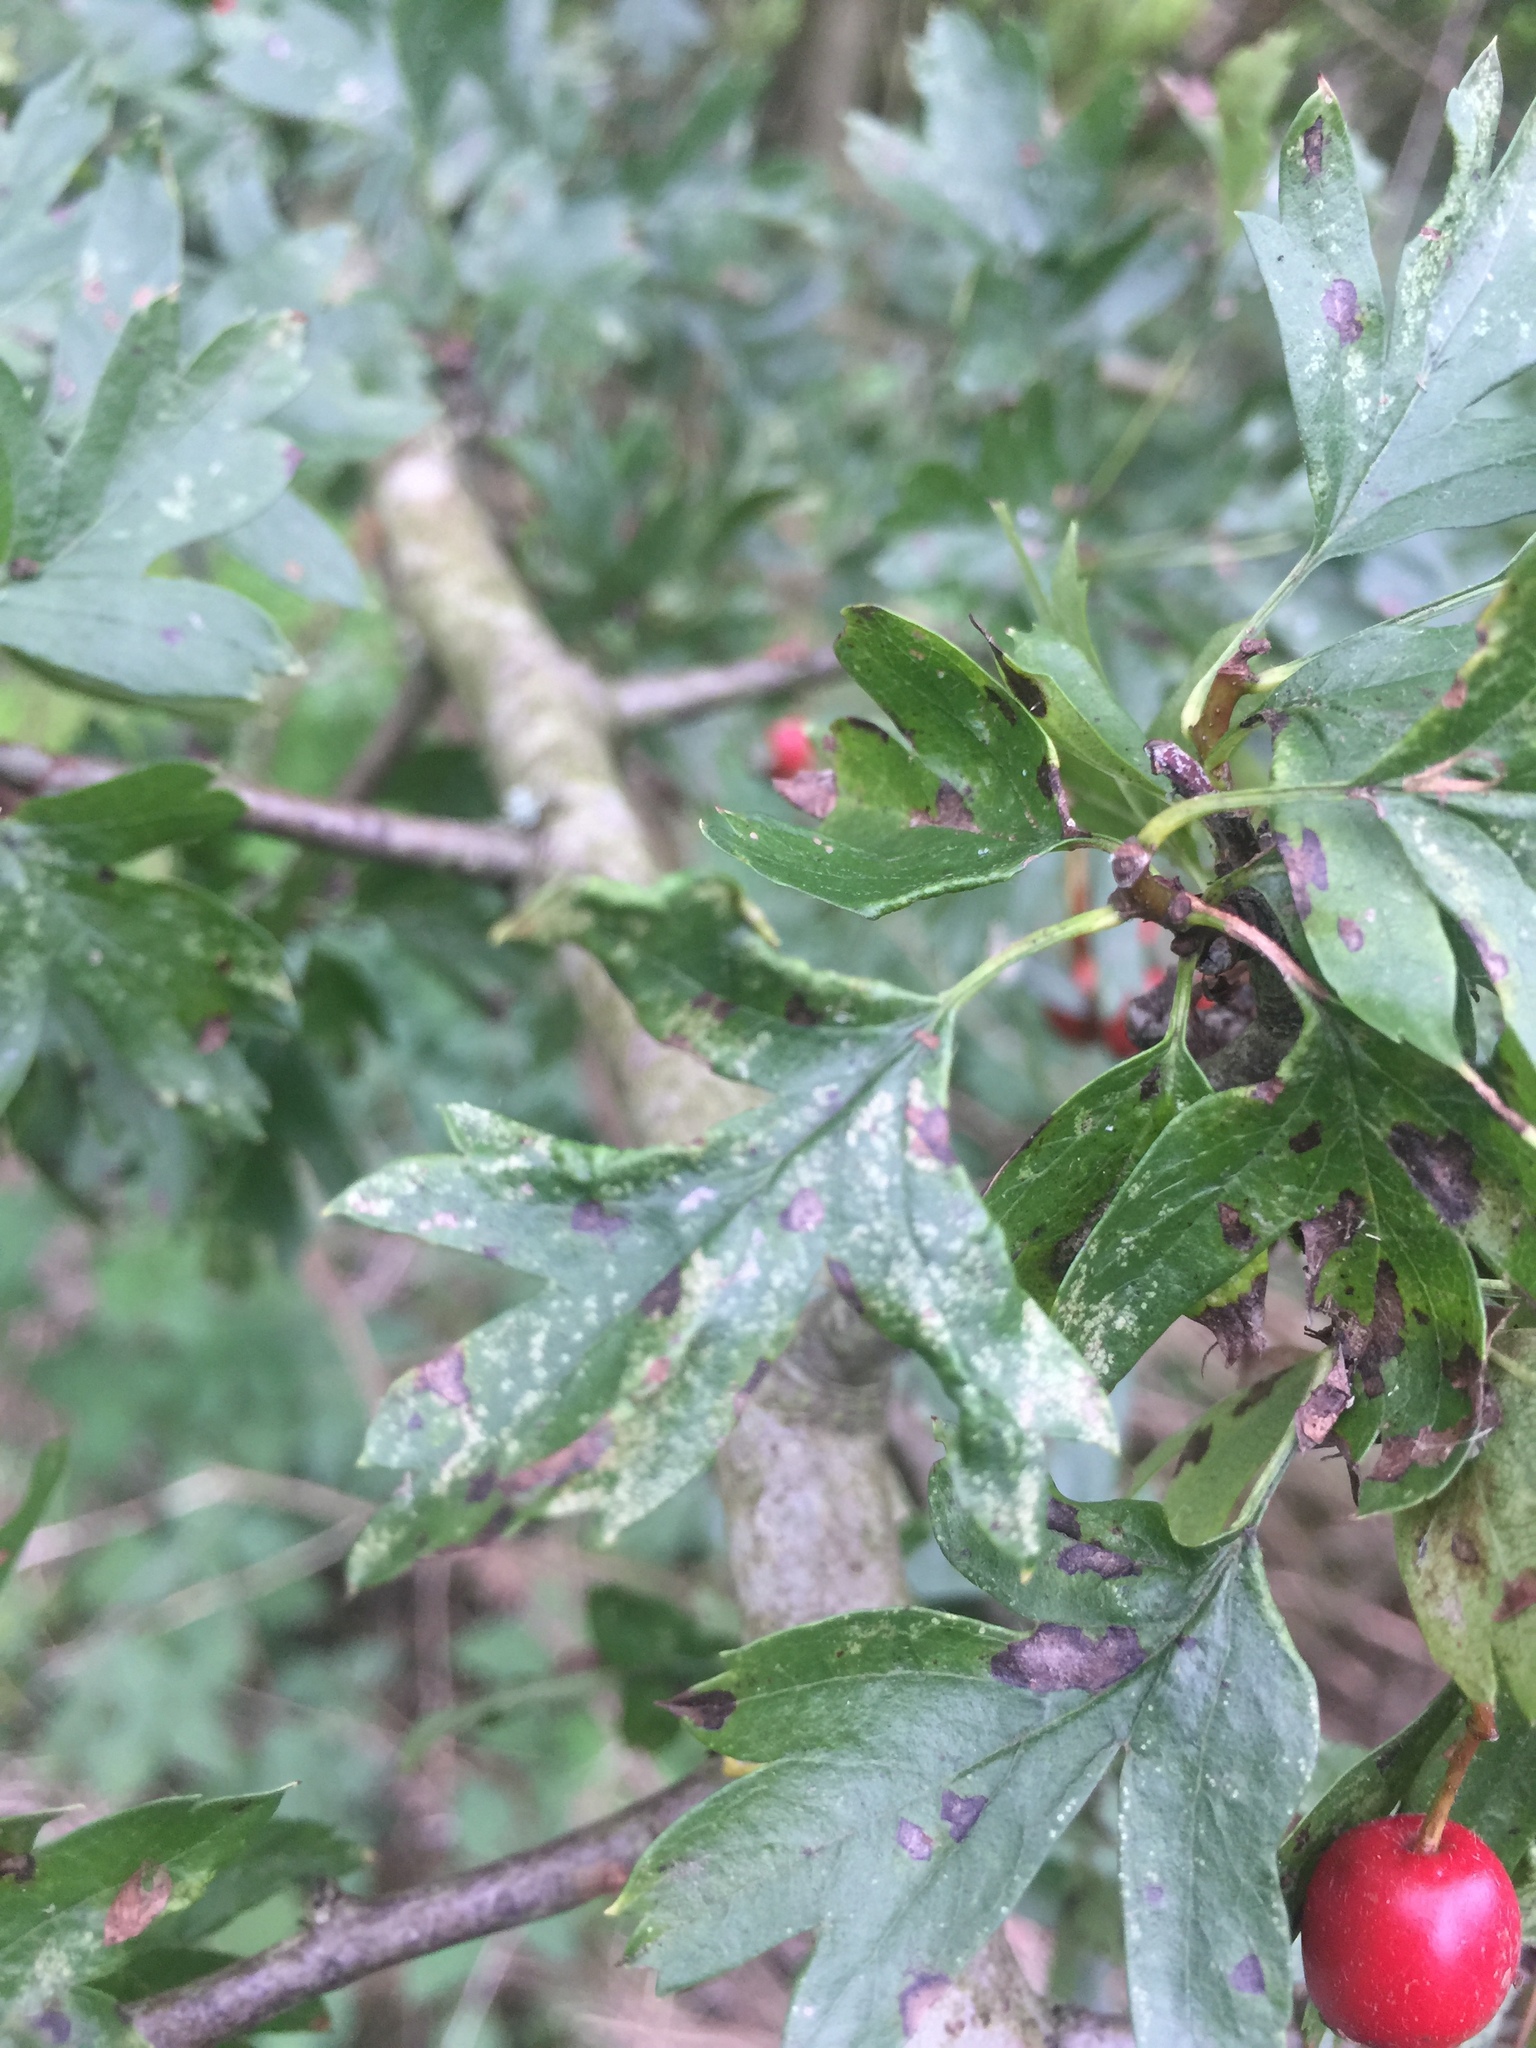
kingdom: Animalia
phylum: Arthropoda
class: Arachnida
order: Trombidiformes
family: Eriophyidae
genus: Phyllocoptes
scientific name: Phyllocoptes goniothorax
